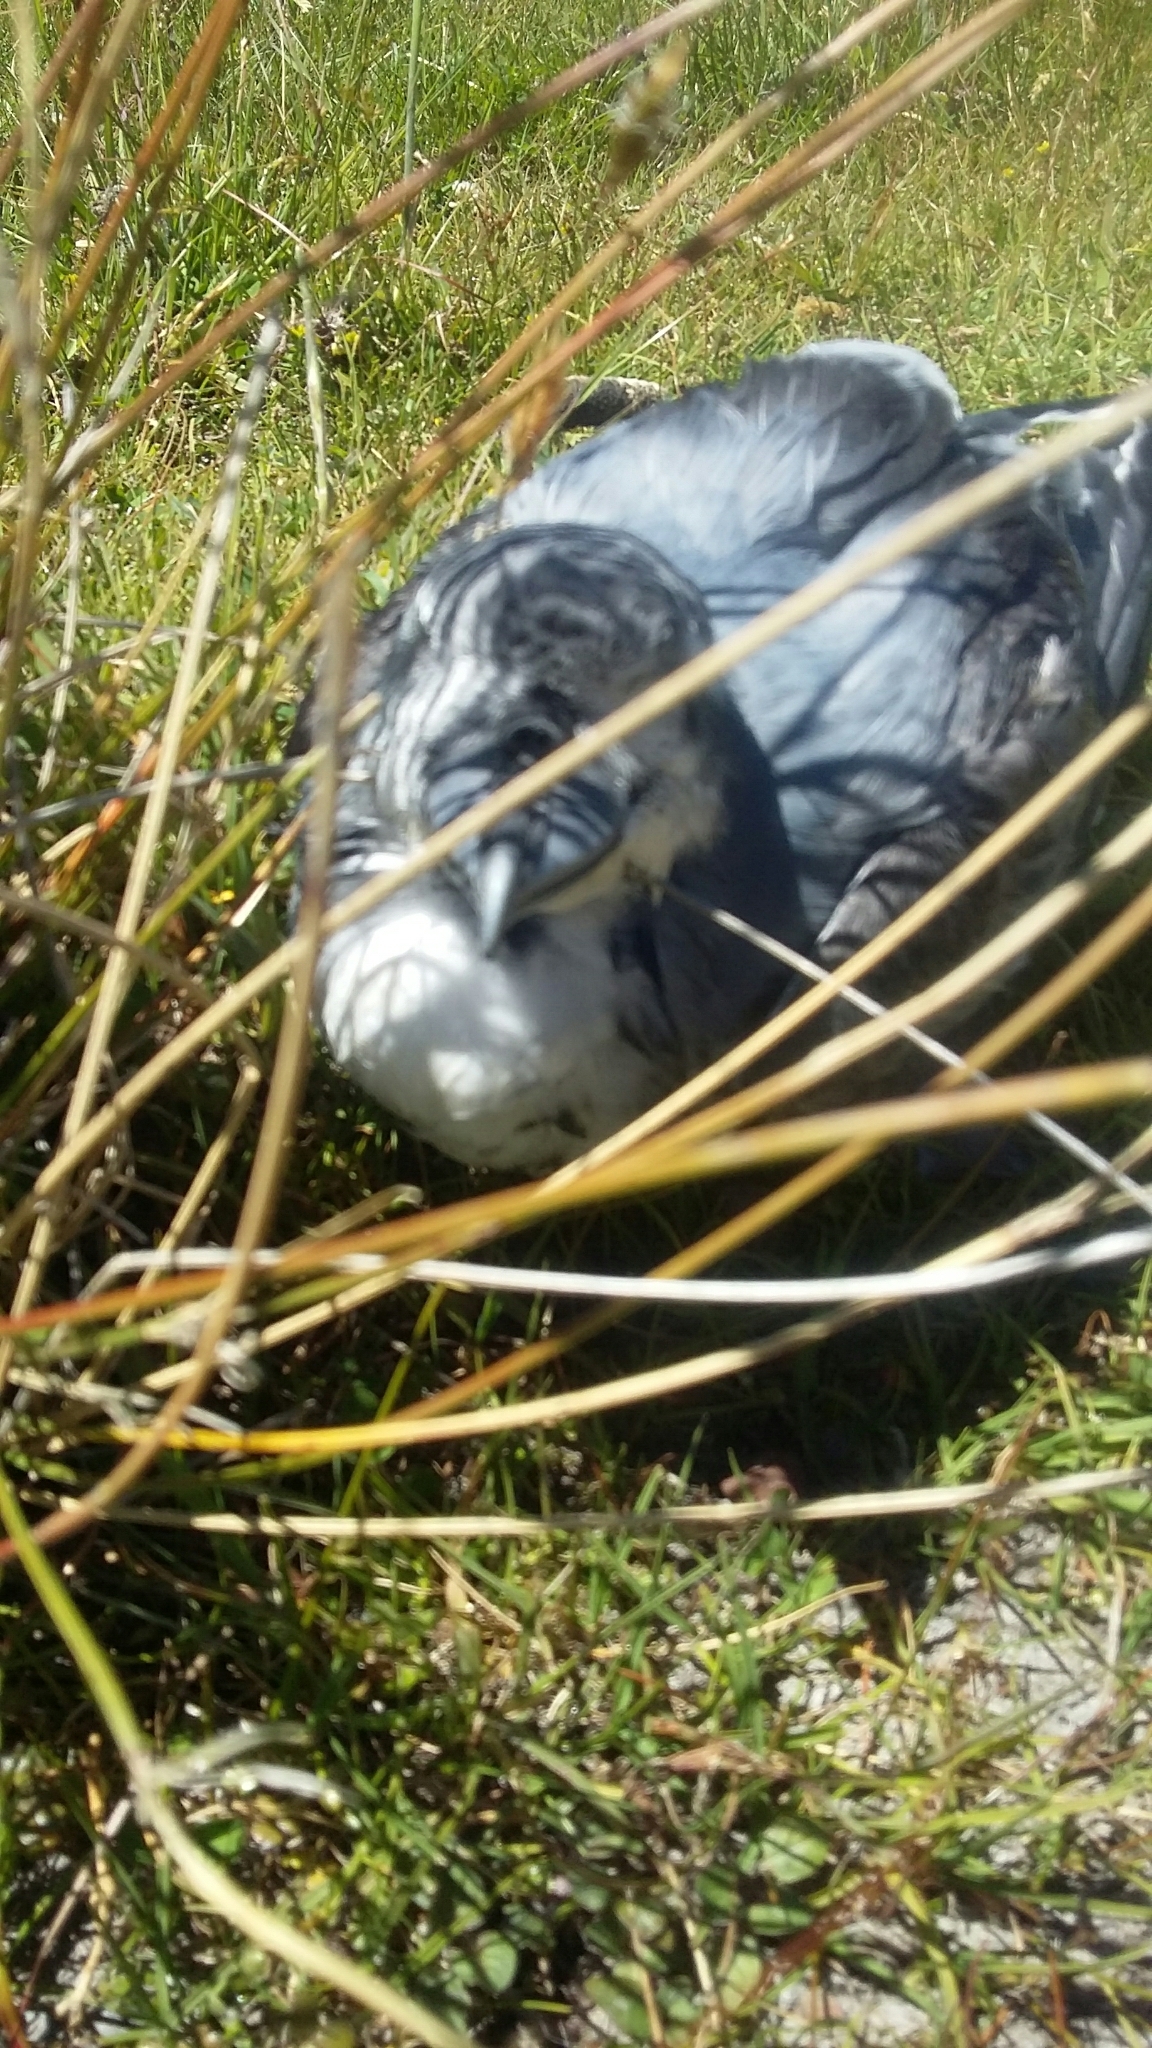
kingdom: Animalia
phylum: Chordata
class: Aves
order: Procellariiformes
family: Procellariidae
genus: Pachyptila
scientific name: Pachyptila vittata
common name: Broad-billed prion
